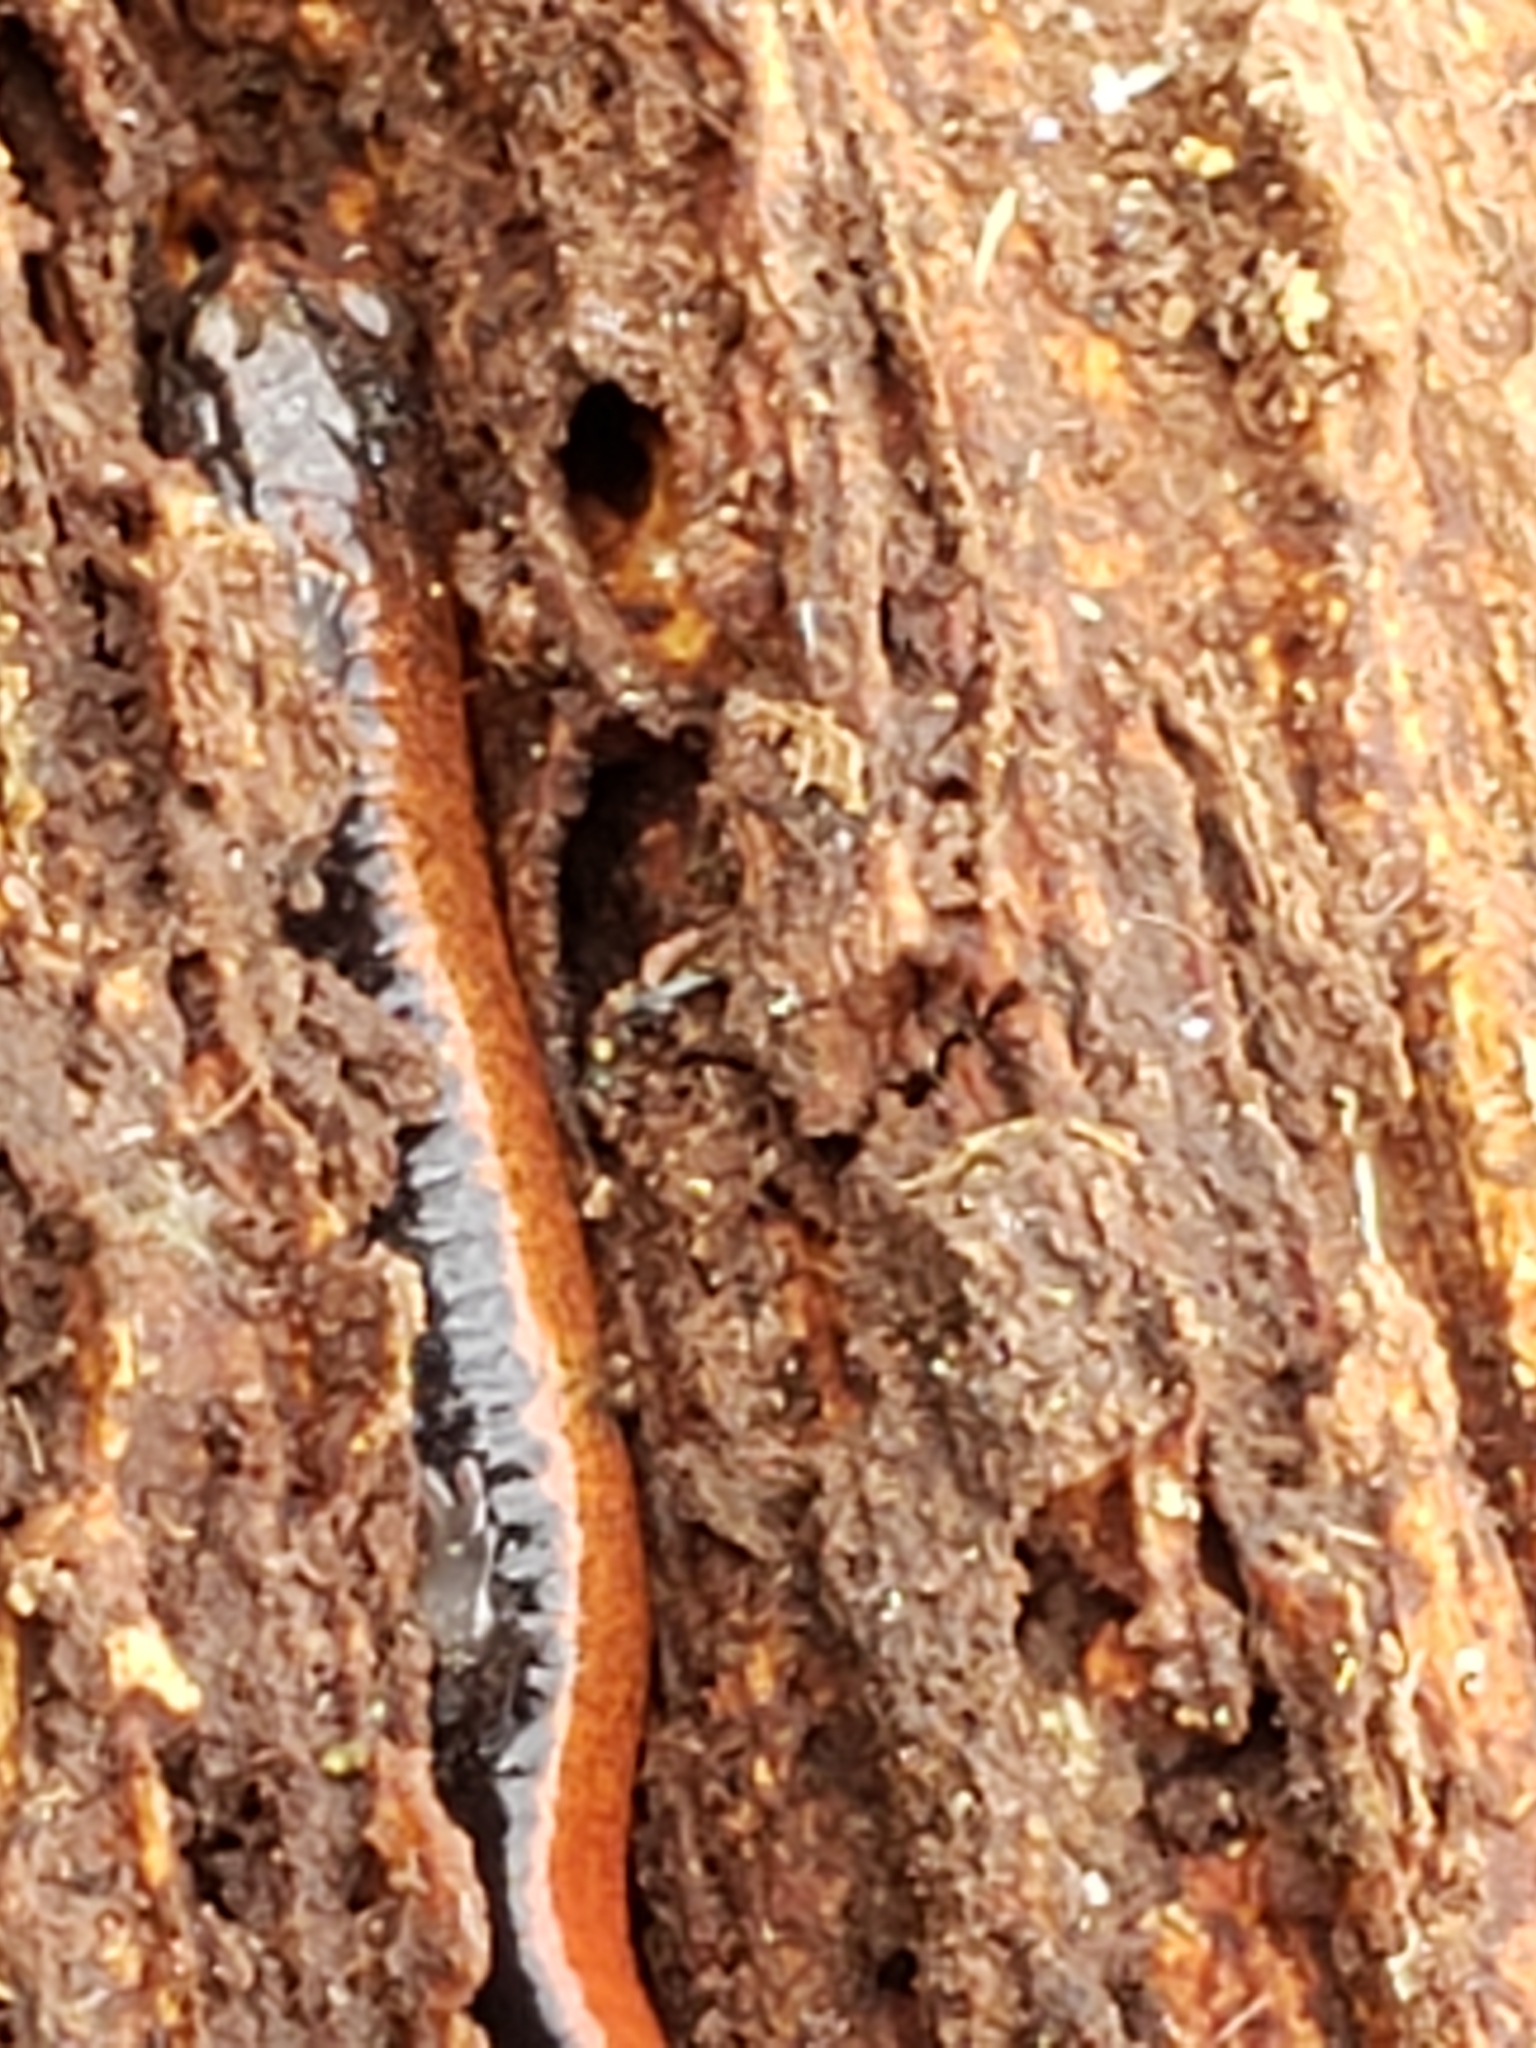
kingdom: Animalia
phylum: Chordata
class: Amphibia
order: Caudata
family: Plethodontidae
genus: Plethodon
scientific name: Plethodon cinereus
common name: Redback salamander
